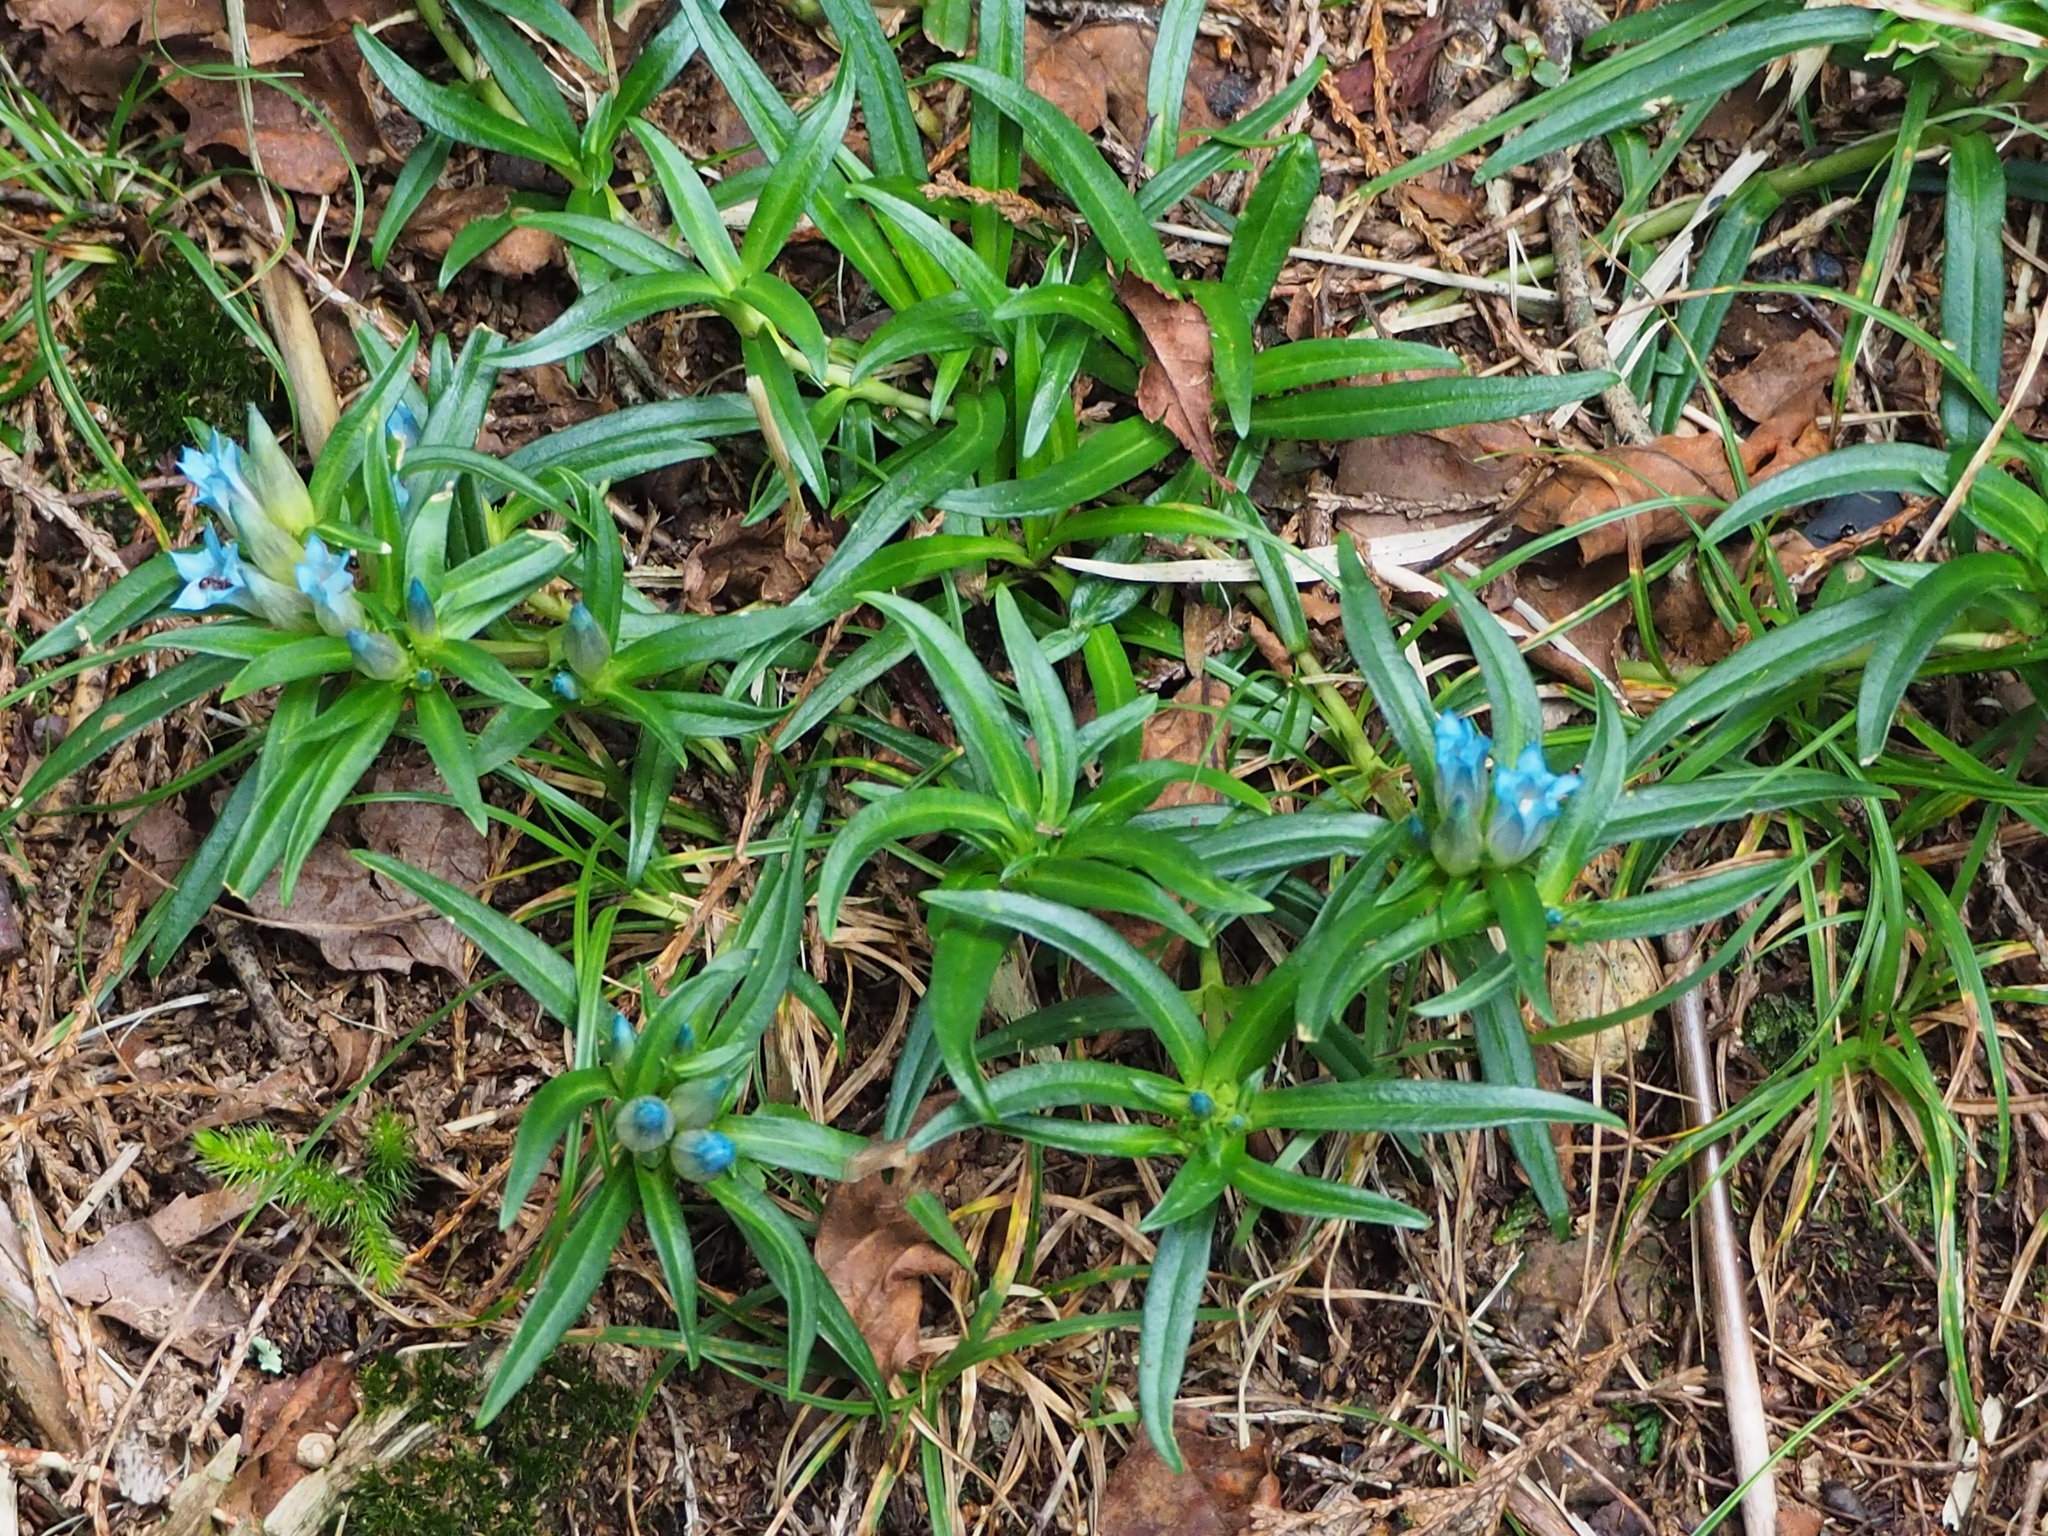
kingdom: Plantae
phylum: Tracheophyta
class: Magnoliopsida
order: Gentianales
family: Gentianaceae
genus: Gentiana
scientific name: Gentiana davidii
